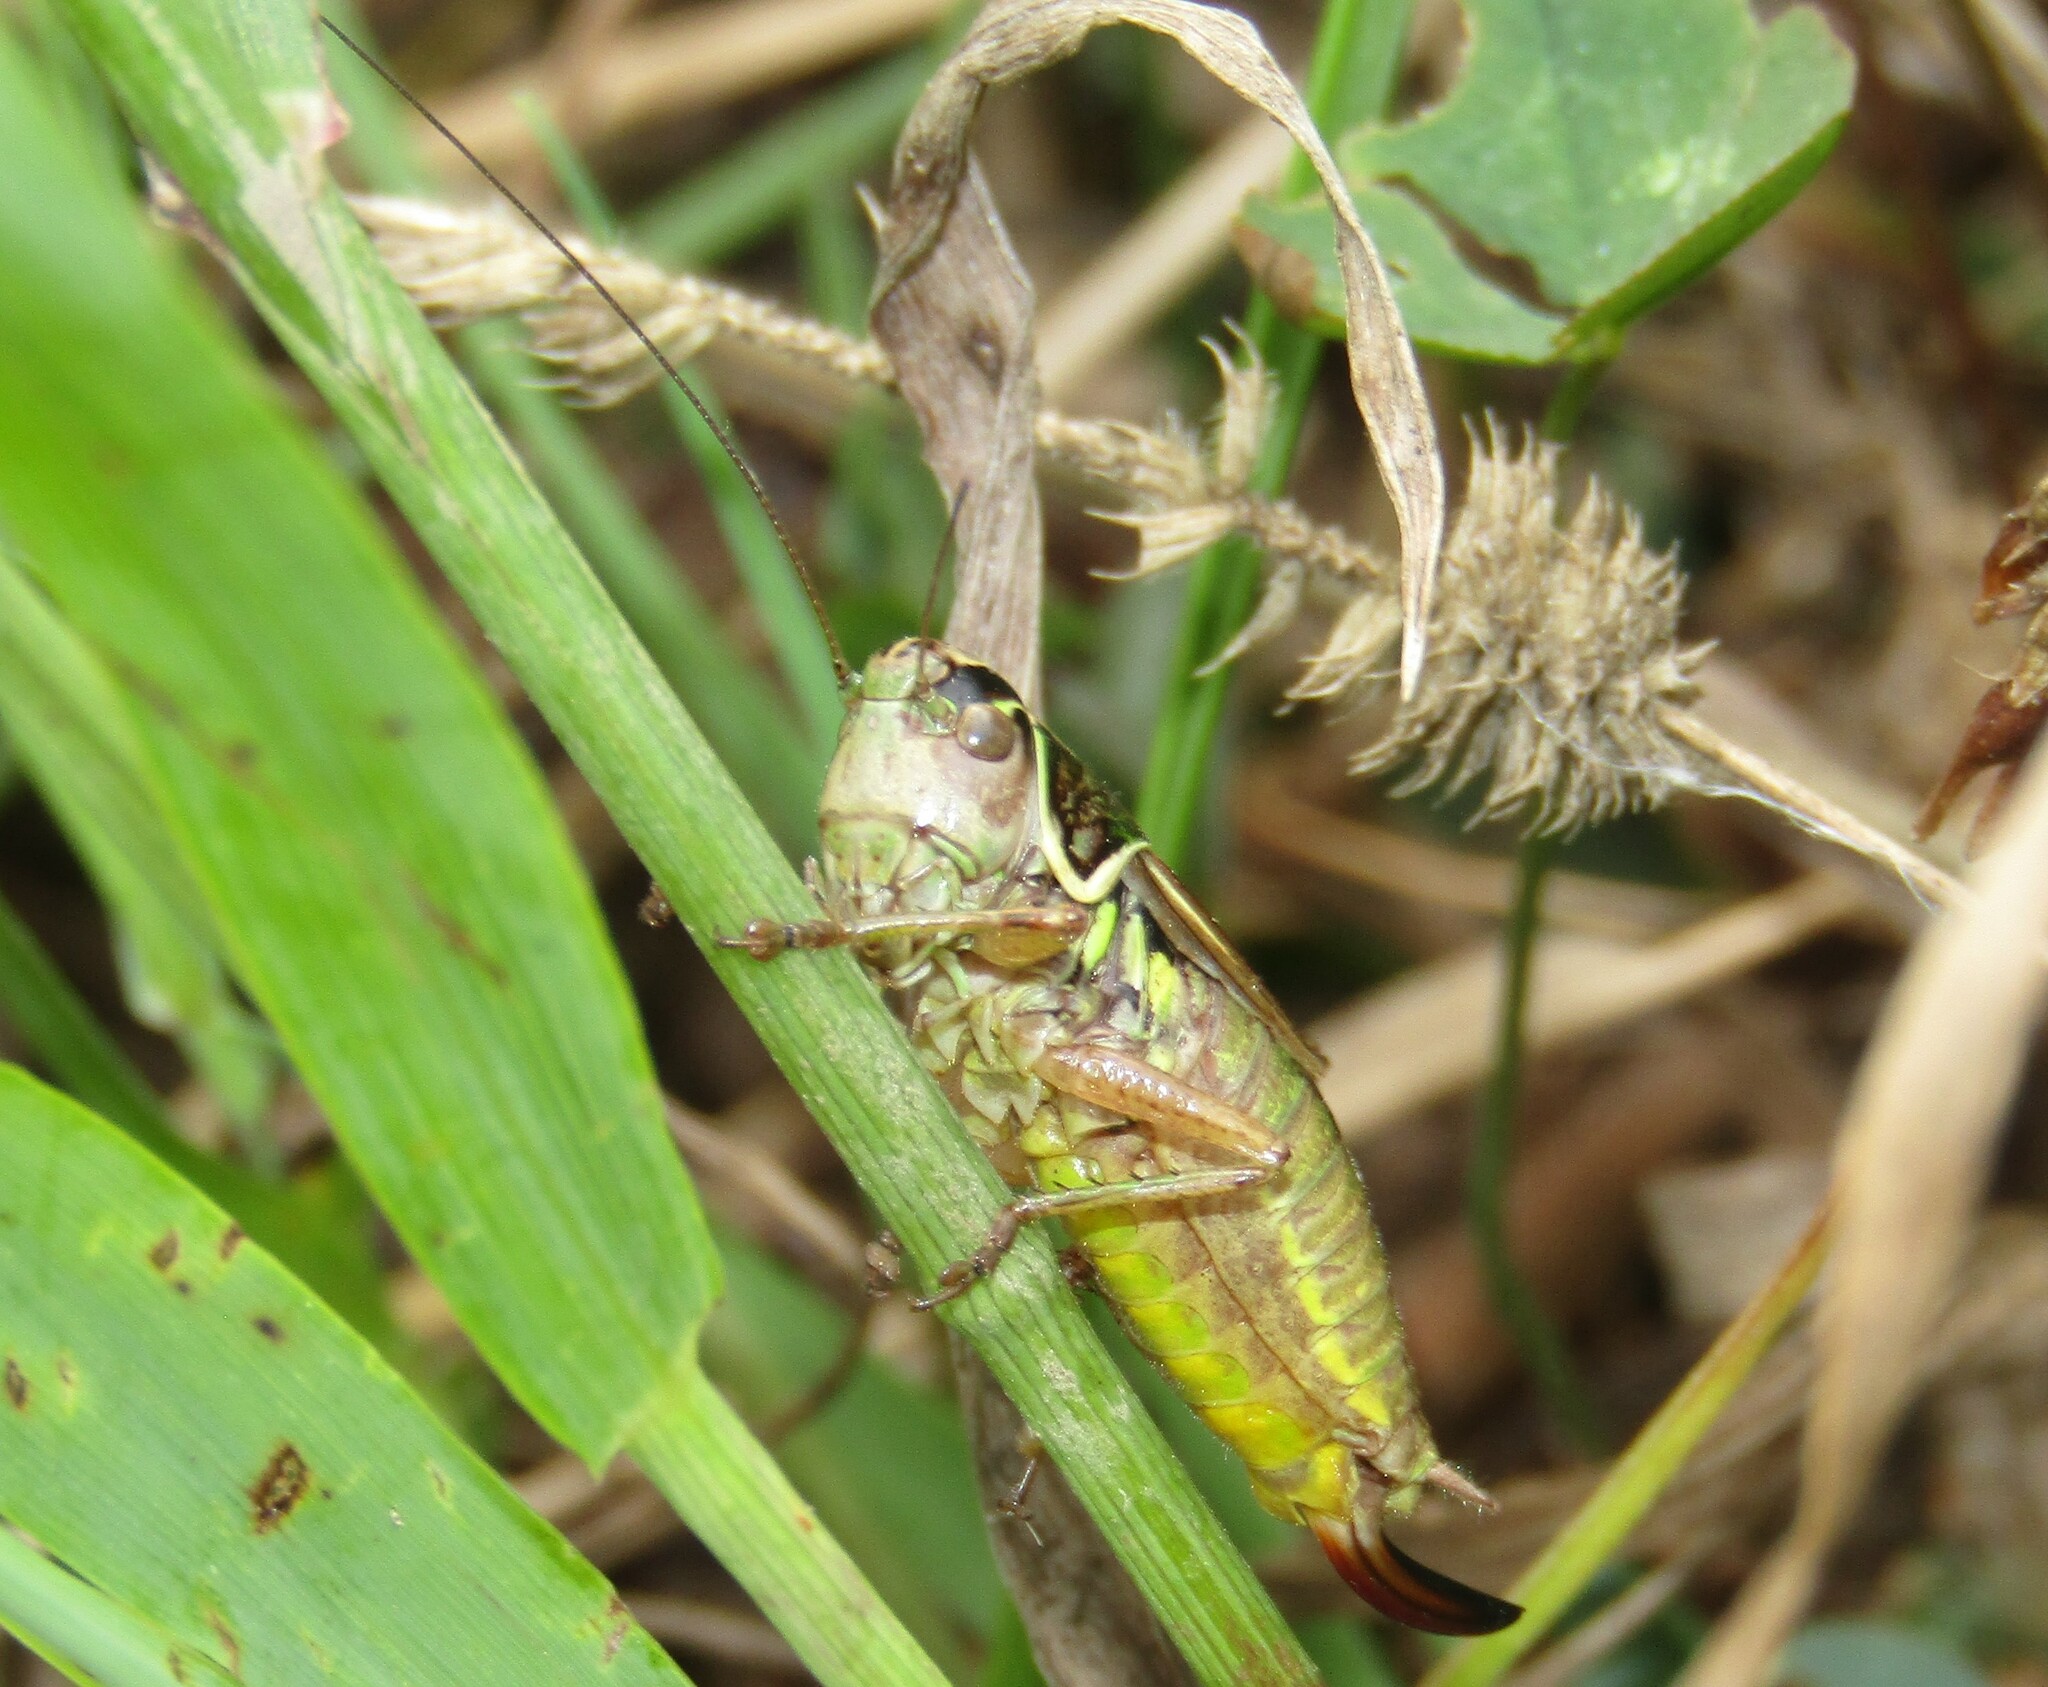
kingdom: Animalia
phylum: Arthropoda
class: Insecta
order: Orthoptera
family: Tettigoniidae
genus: Roeseliana
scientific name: Roeseliana roeselii
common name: Roesel's bush cricket
